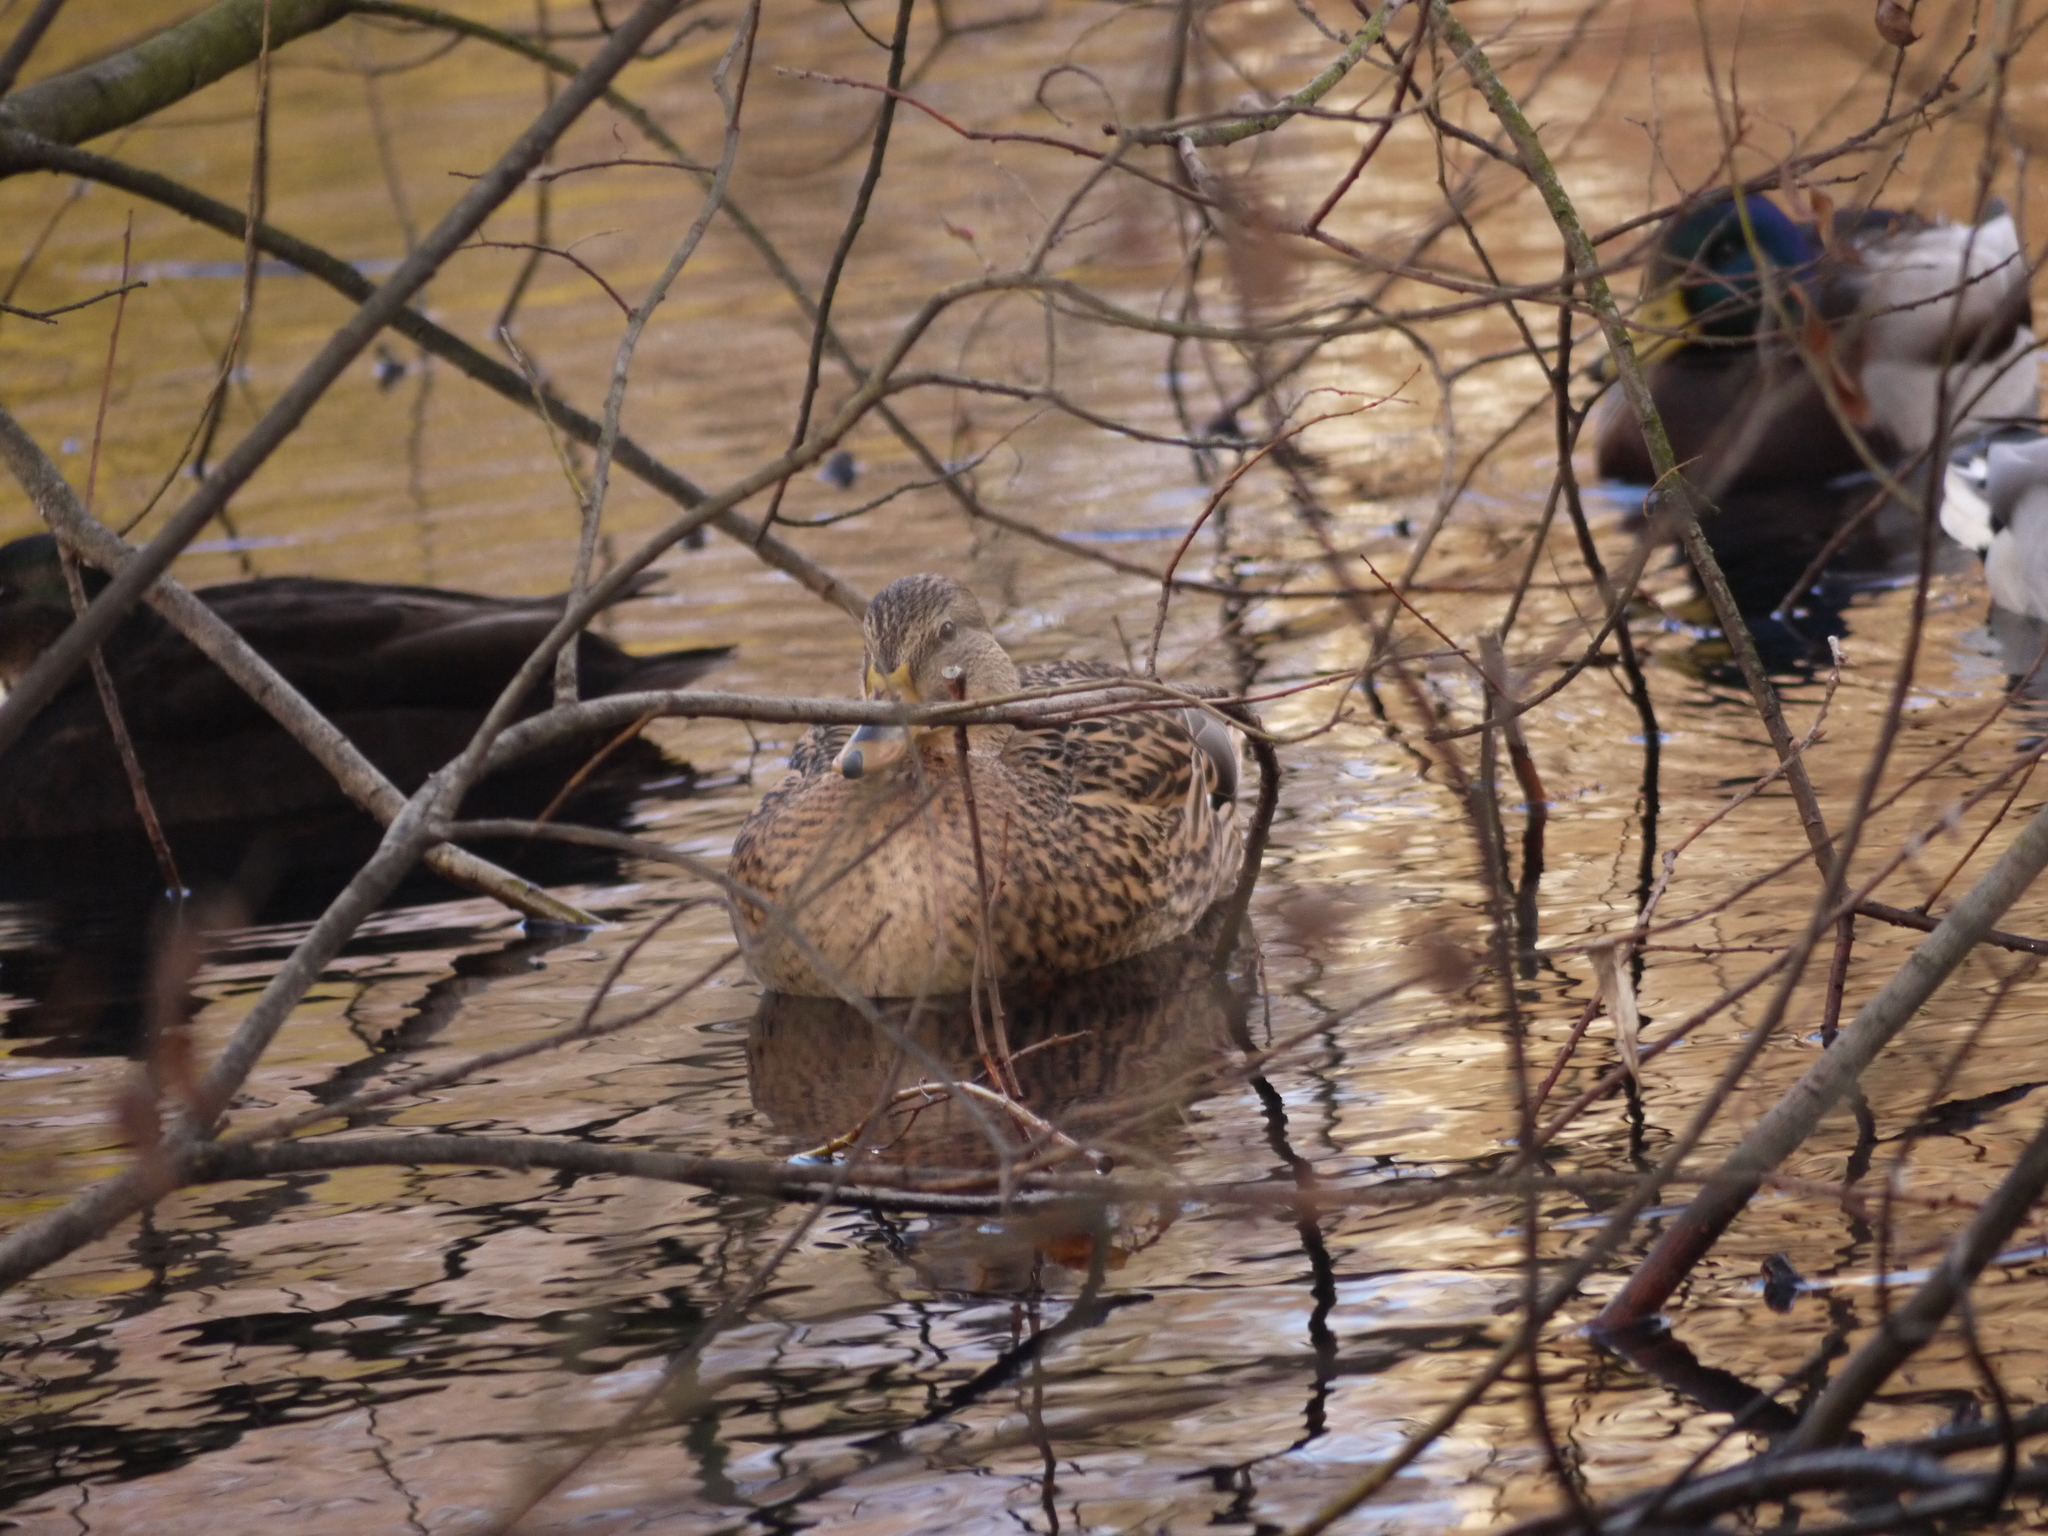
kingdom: Animalia
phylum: Chordata
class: Aves
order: Anseriformes
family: Anatidae
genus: Anas
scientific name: Anas platyrhynchos
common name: Mallard
